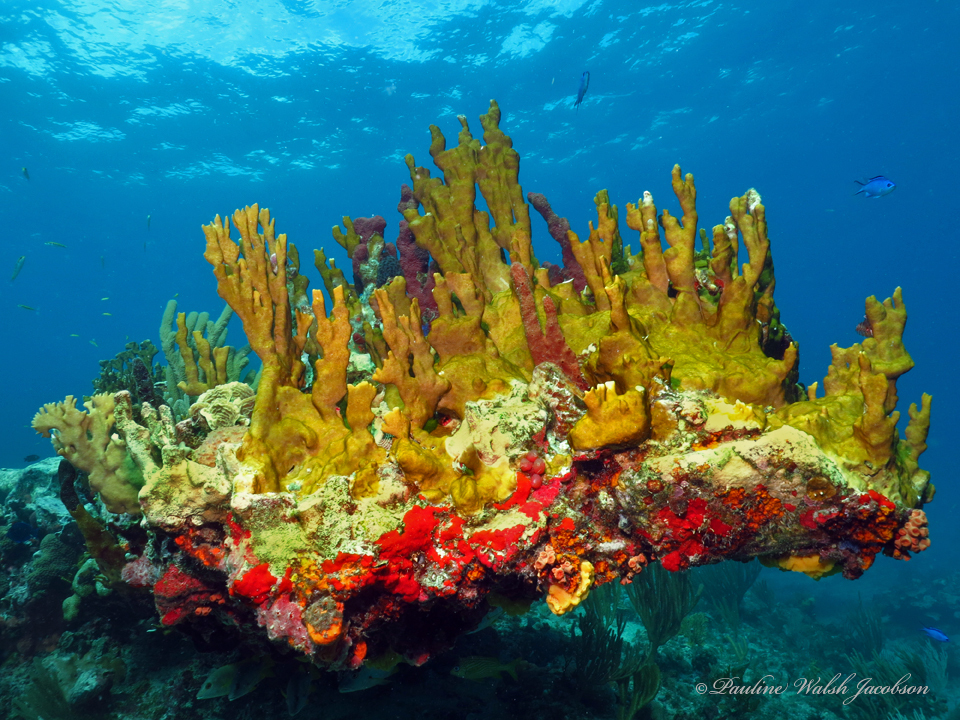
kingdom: Animalia
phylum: Cnidaria
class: Hydrozoa
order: Anthoathecata
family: Milleporidae
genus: Millepora
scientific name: Millepora complanata
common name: Bladed fire coral
